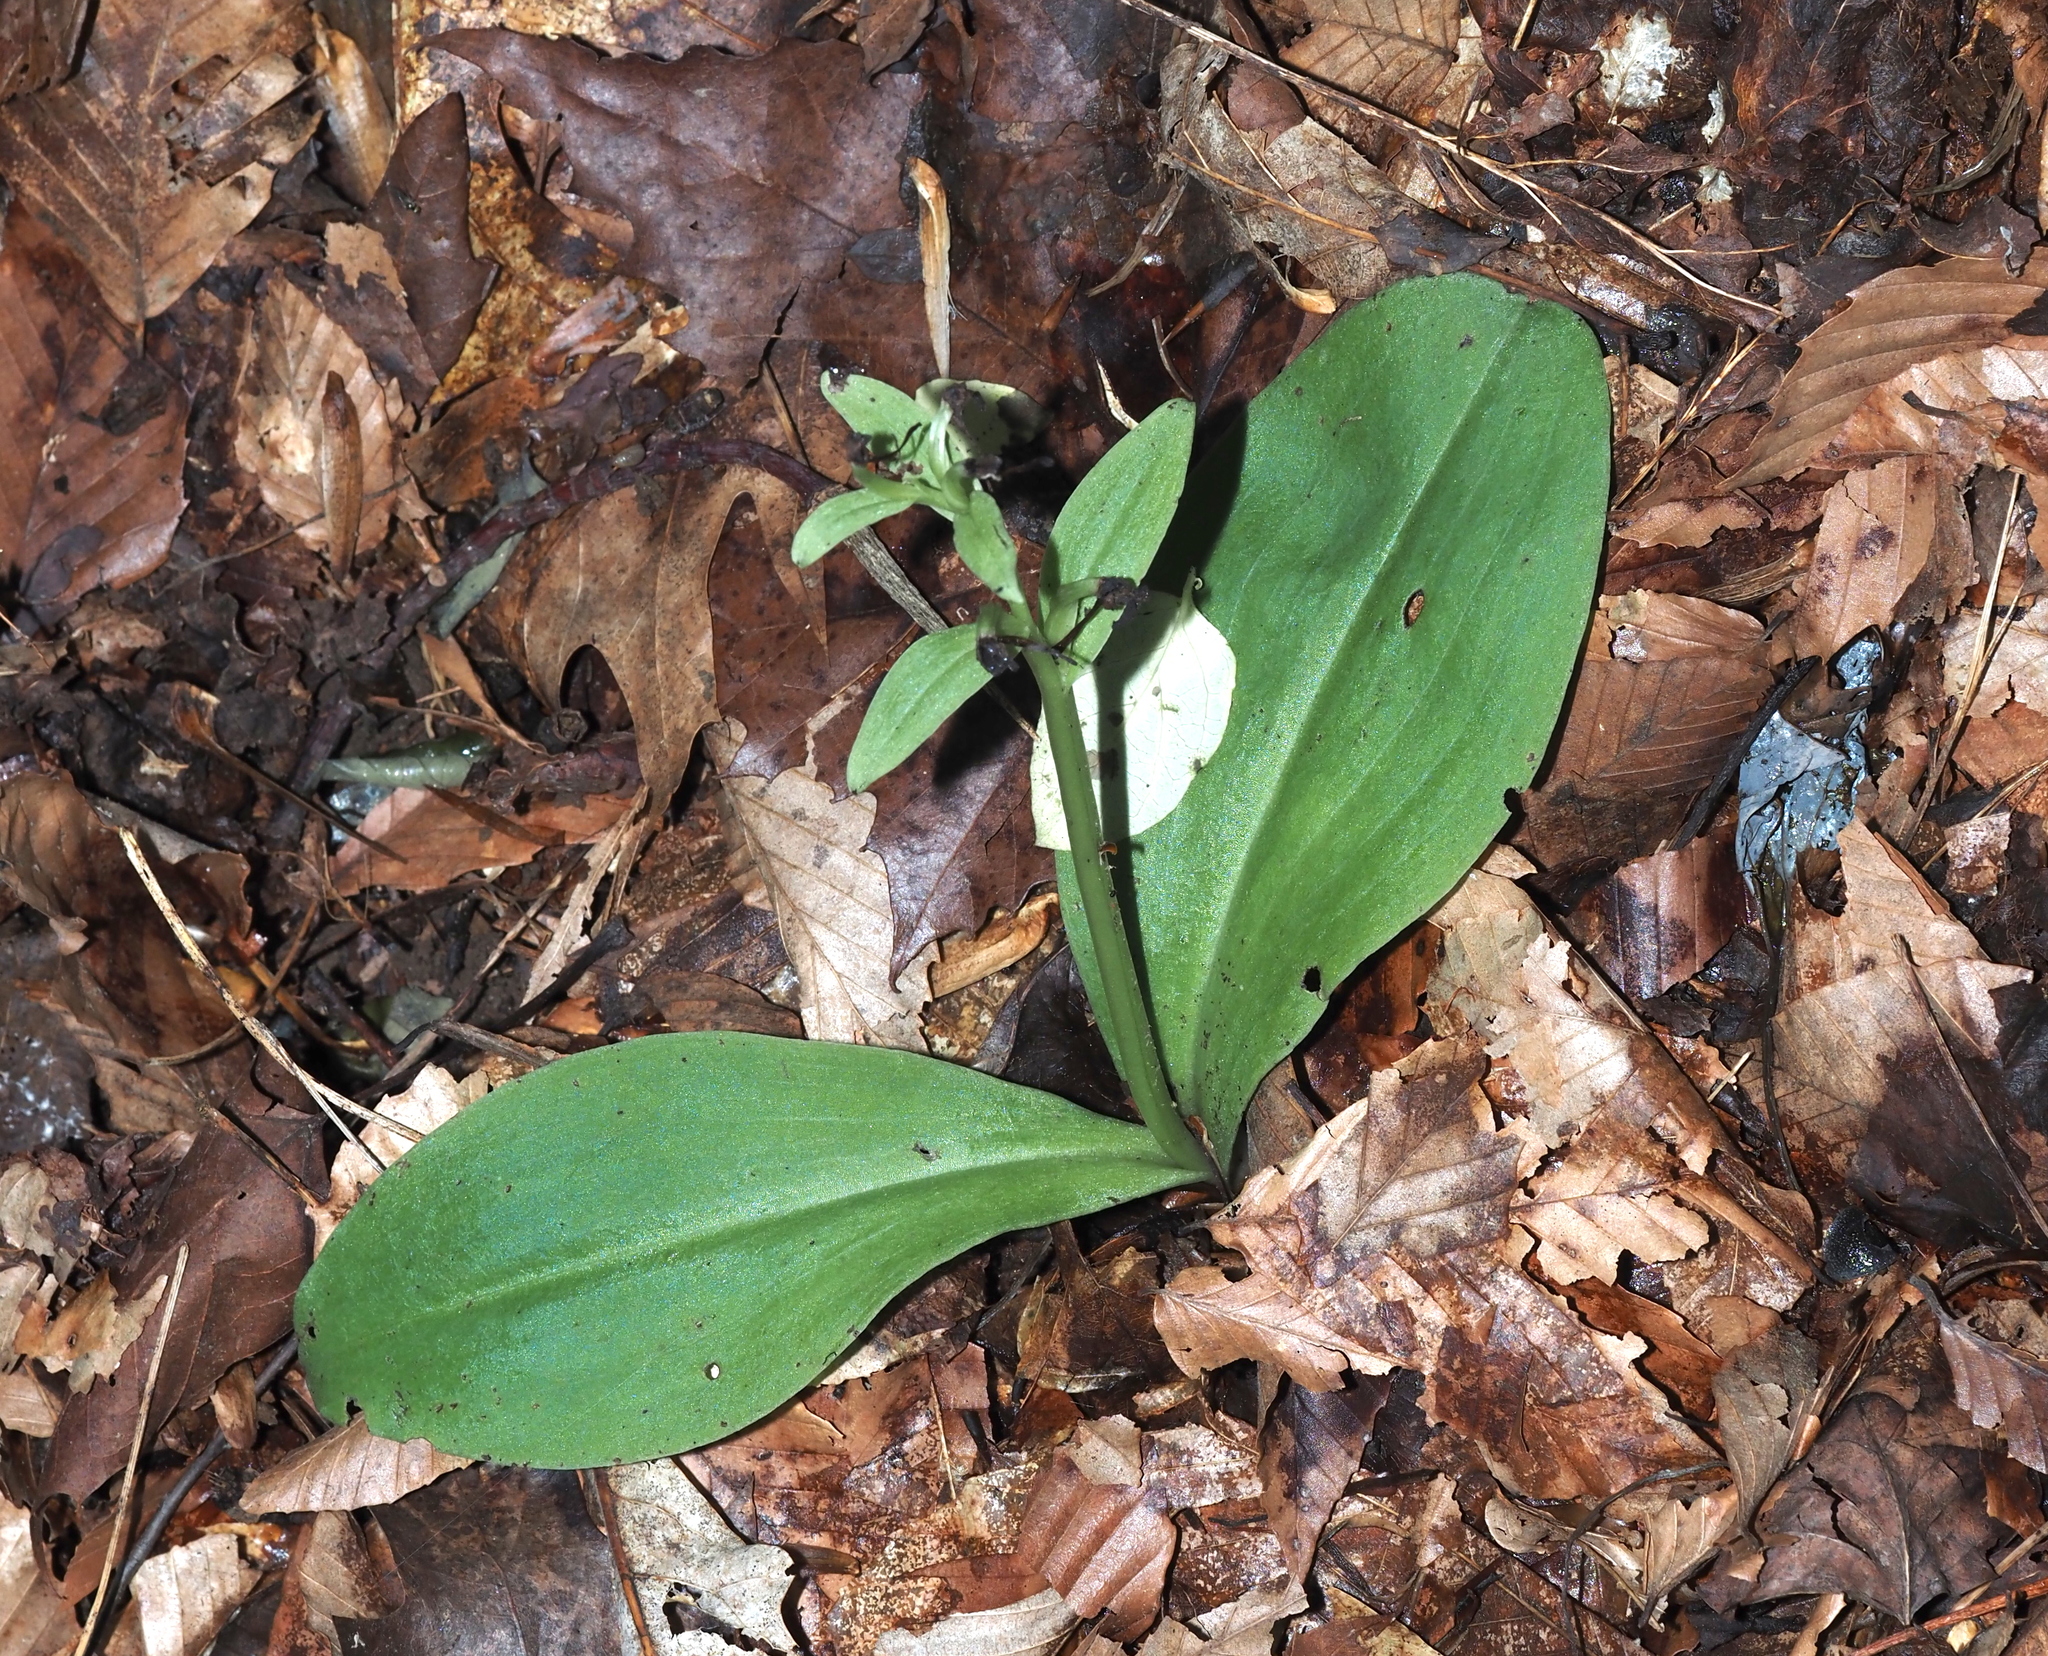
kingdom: Plantae
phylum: Tracheophyta
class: Liliopsida
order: Asparagales
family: Orchidaceae
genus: Galearis
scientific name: Galearis spectabilis
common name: Purple-hooded orchis
